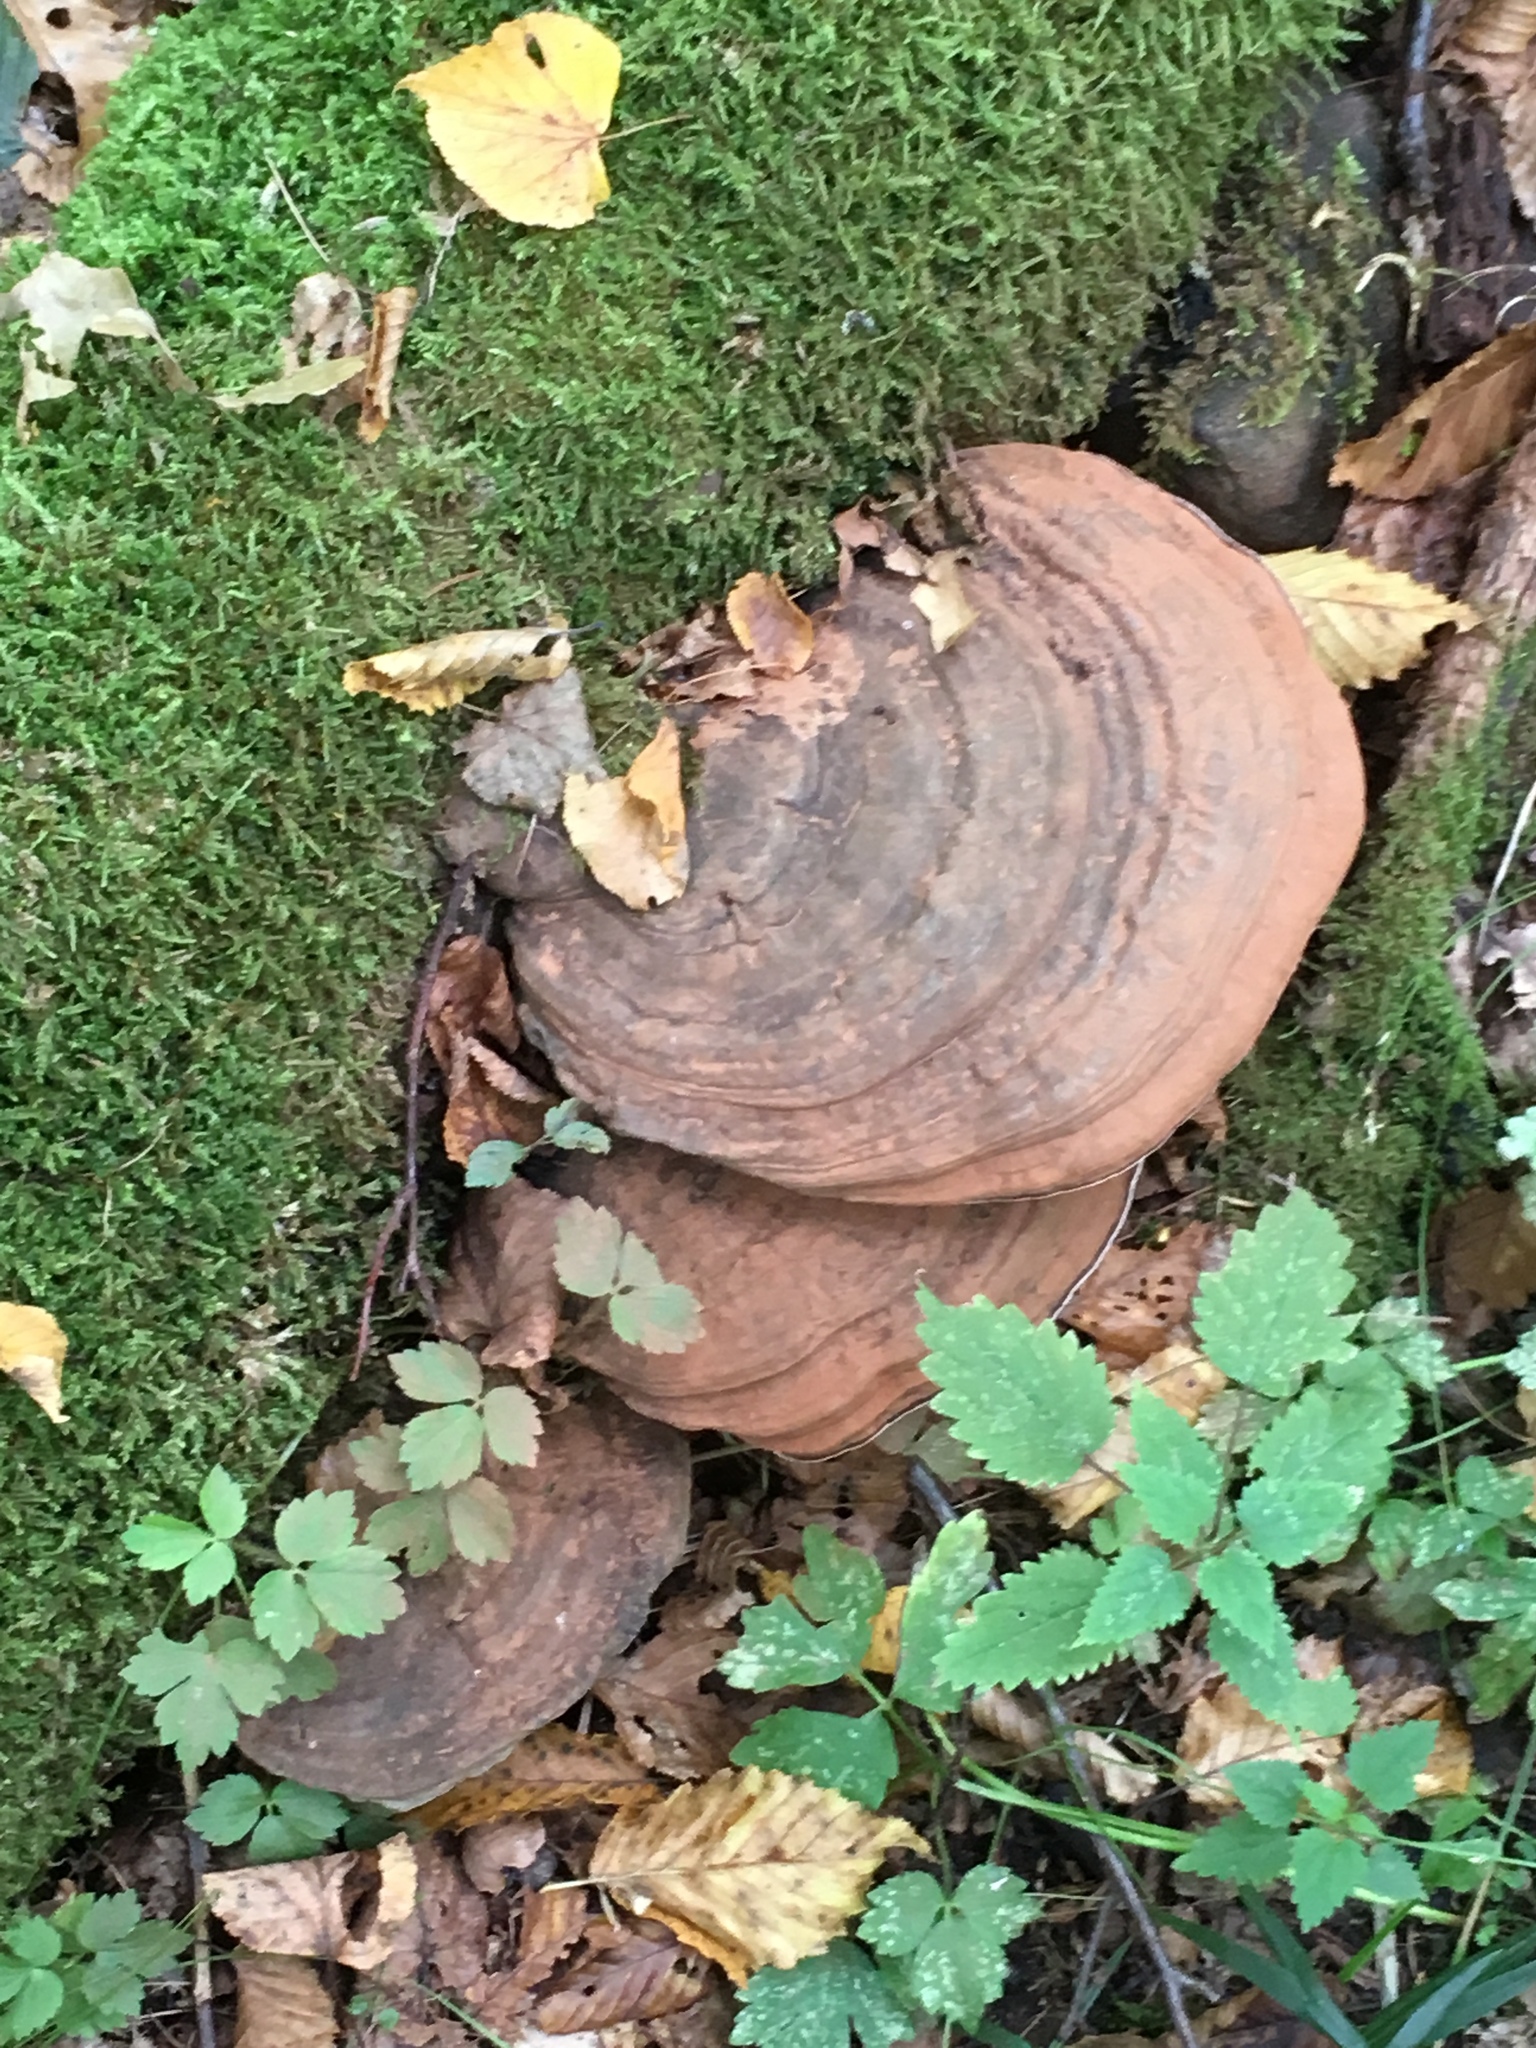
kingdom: Fungi
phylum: Basidiomycota
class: Agaricomycetes
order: Polyporales
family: Polyporaceae
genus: Ganoderma
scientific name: Ganoderma applanatum
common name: Artist's bracket
